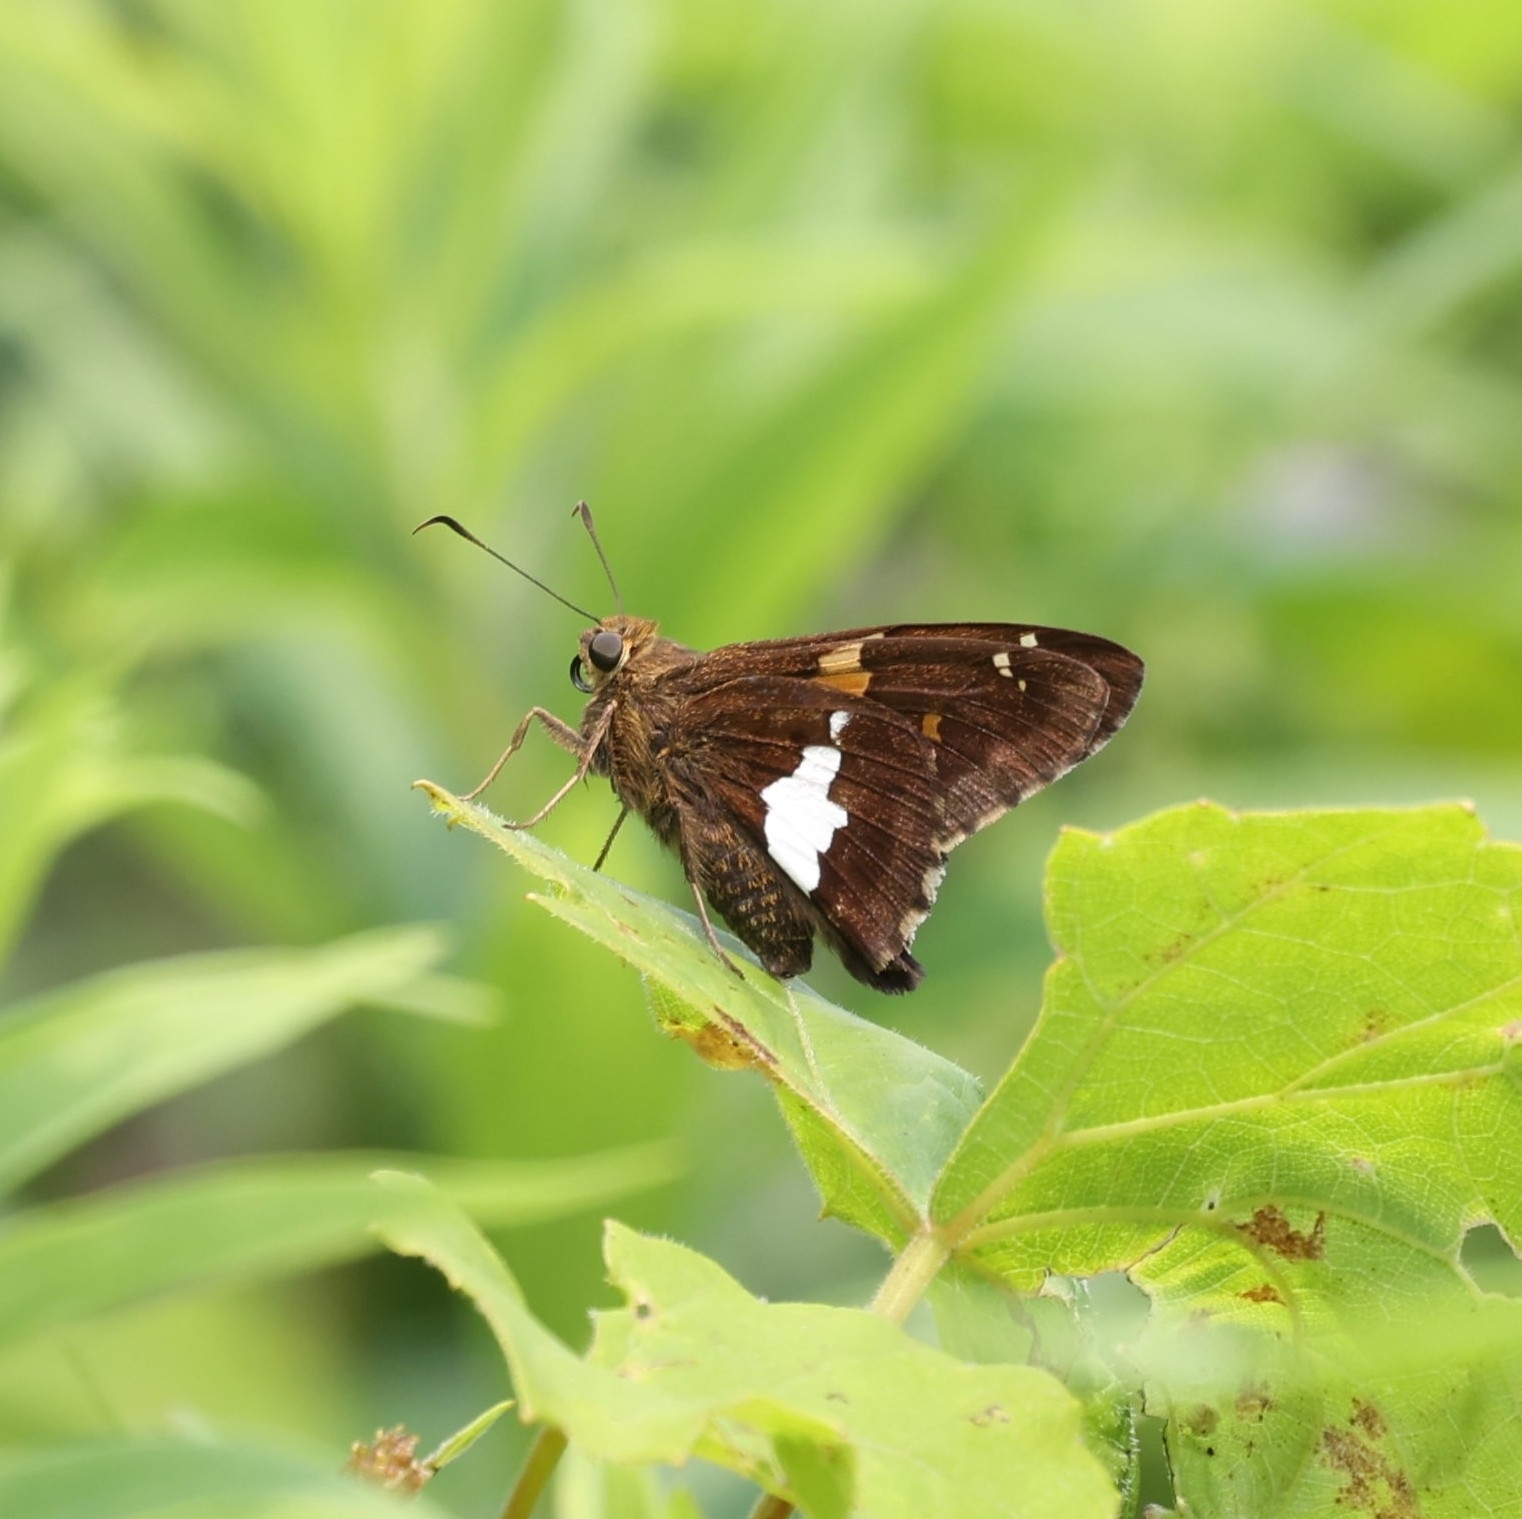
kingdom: Animalia
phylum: Arthropoda
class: Insecta
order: Lepidoptera
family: Hesperiidae
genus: Epargyreus
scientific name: Epargyreus clarus
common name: Silver-spotted skipper
